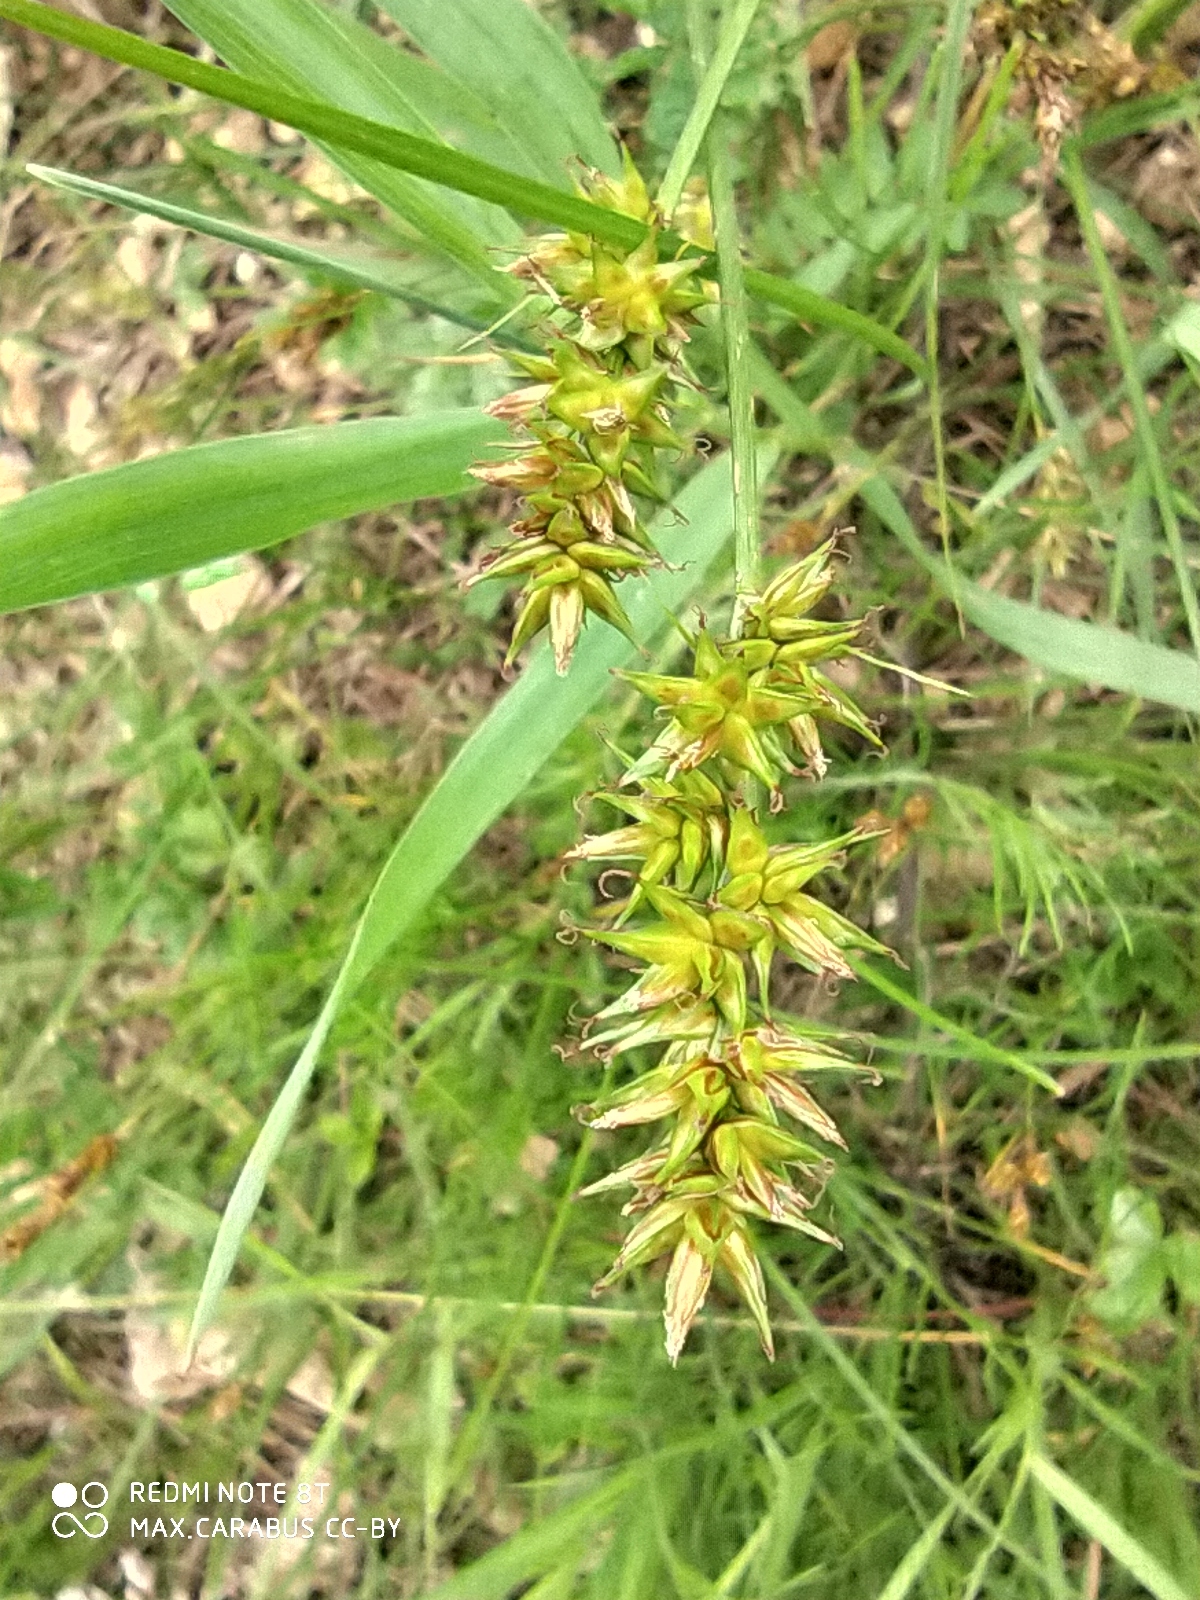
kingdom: Plantae
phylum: Tracheophyta
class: Liliopsida
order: Poales
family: Cyperaceae
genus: Carex
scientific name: Carex spicata
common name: Spiked sedge
